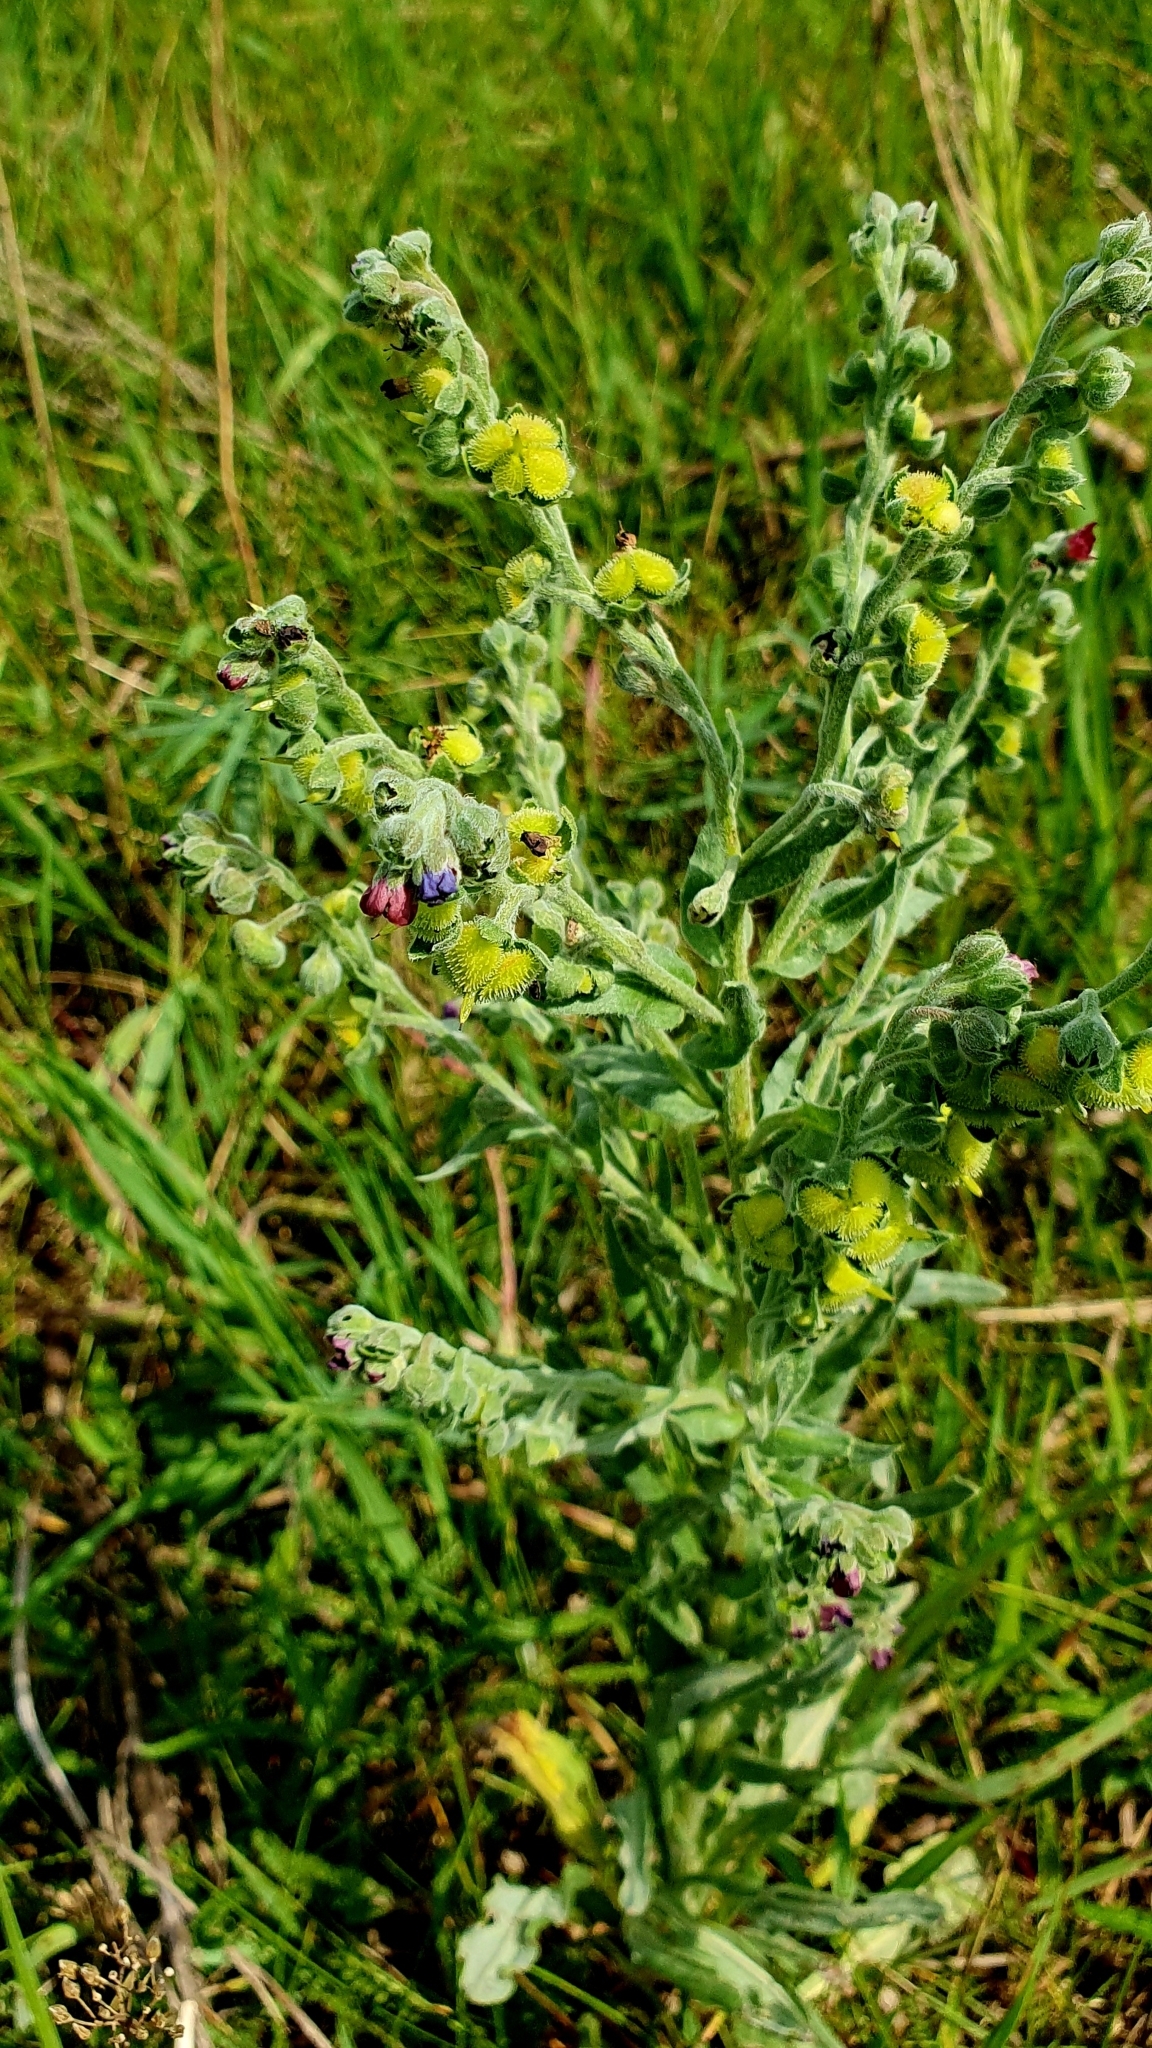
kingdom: Plantae
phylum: Tracheophyta
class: Magnoliopsida
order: Boraginales
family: Boraginaceae
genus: Cynoglossum
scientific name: Cynoglossum officinale
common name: Hound's-tongue
